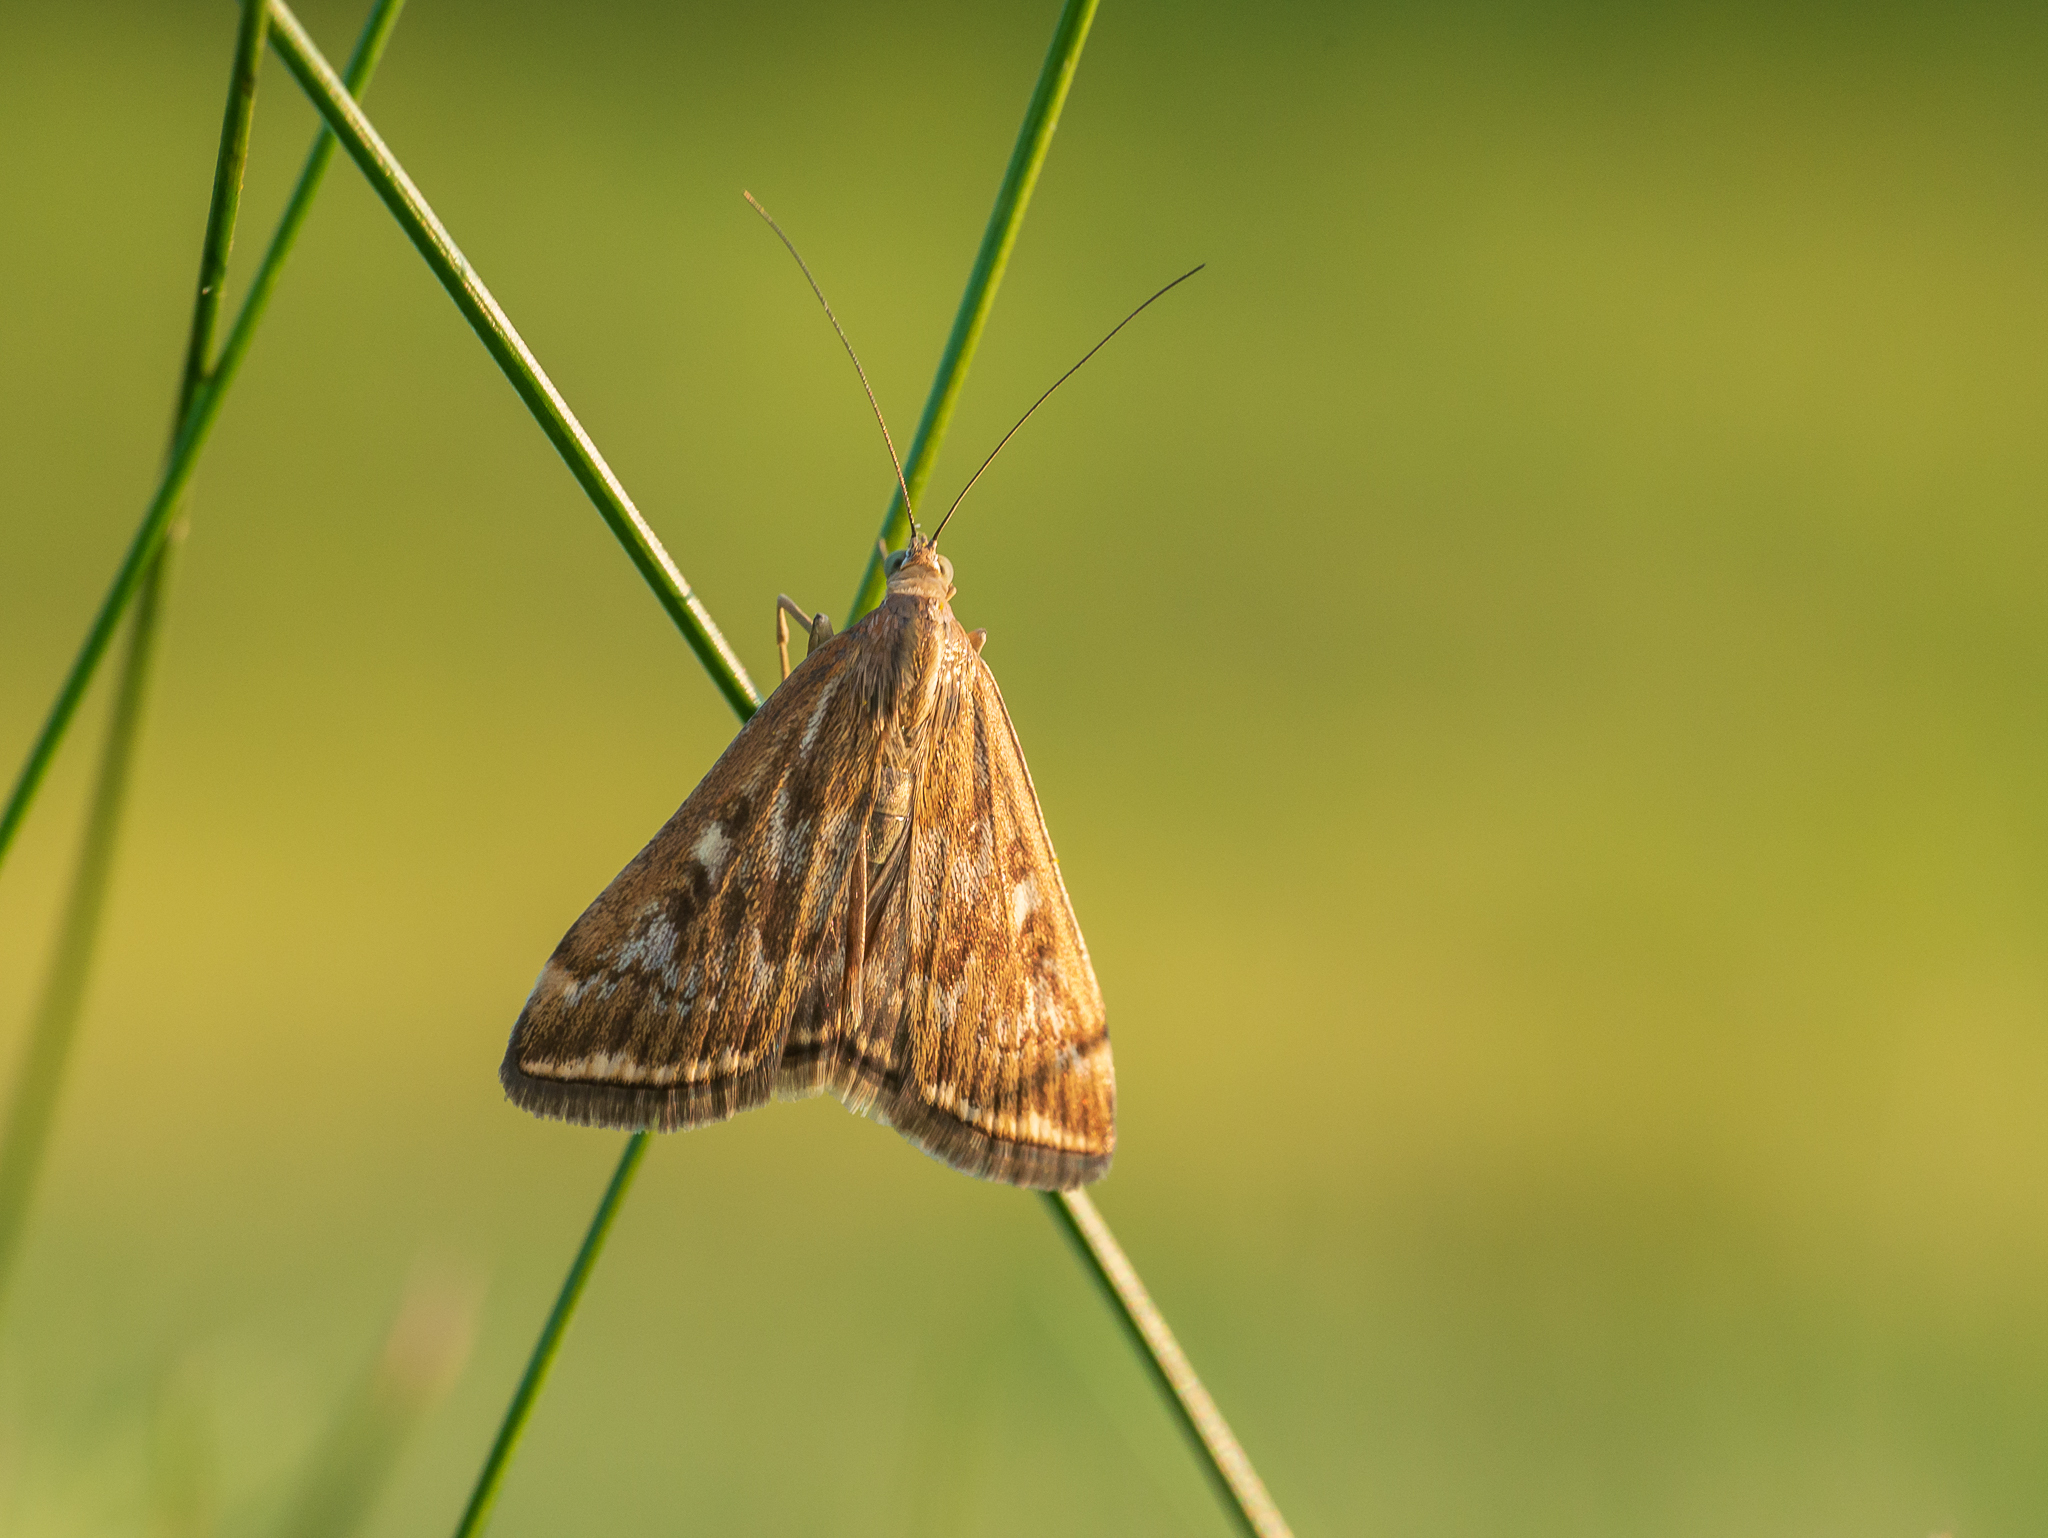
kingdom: Animalia
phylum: Arthropoda
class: Insecta
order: Lepidoptera
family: Crambidae
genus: Loxostege
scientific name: Loxostege sticticalis
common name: Crambid moth
